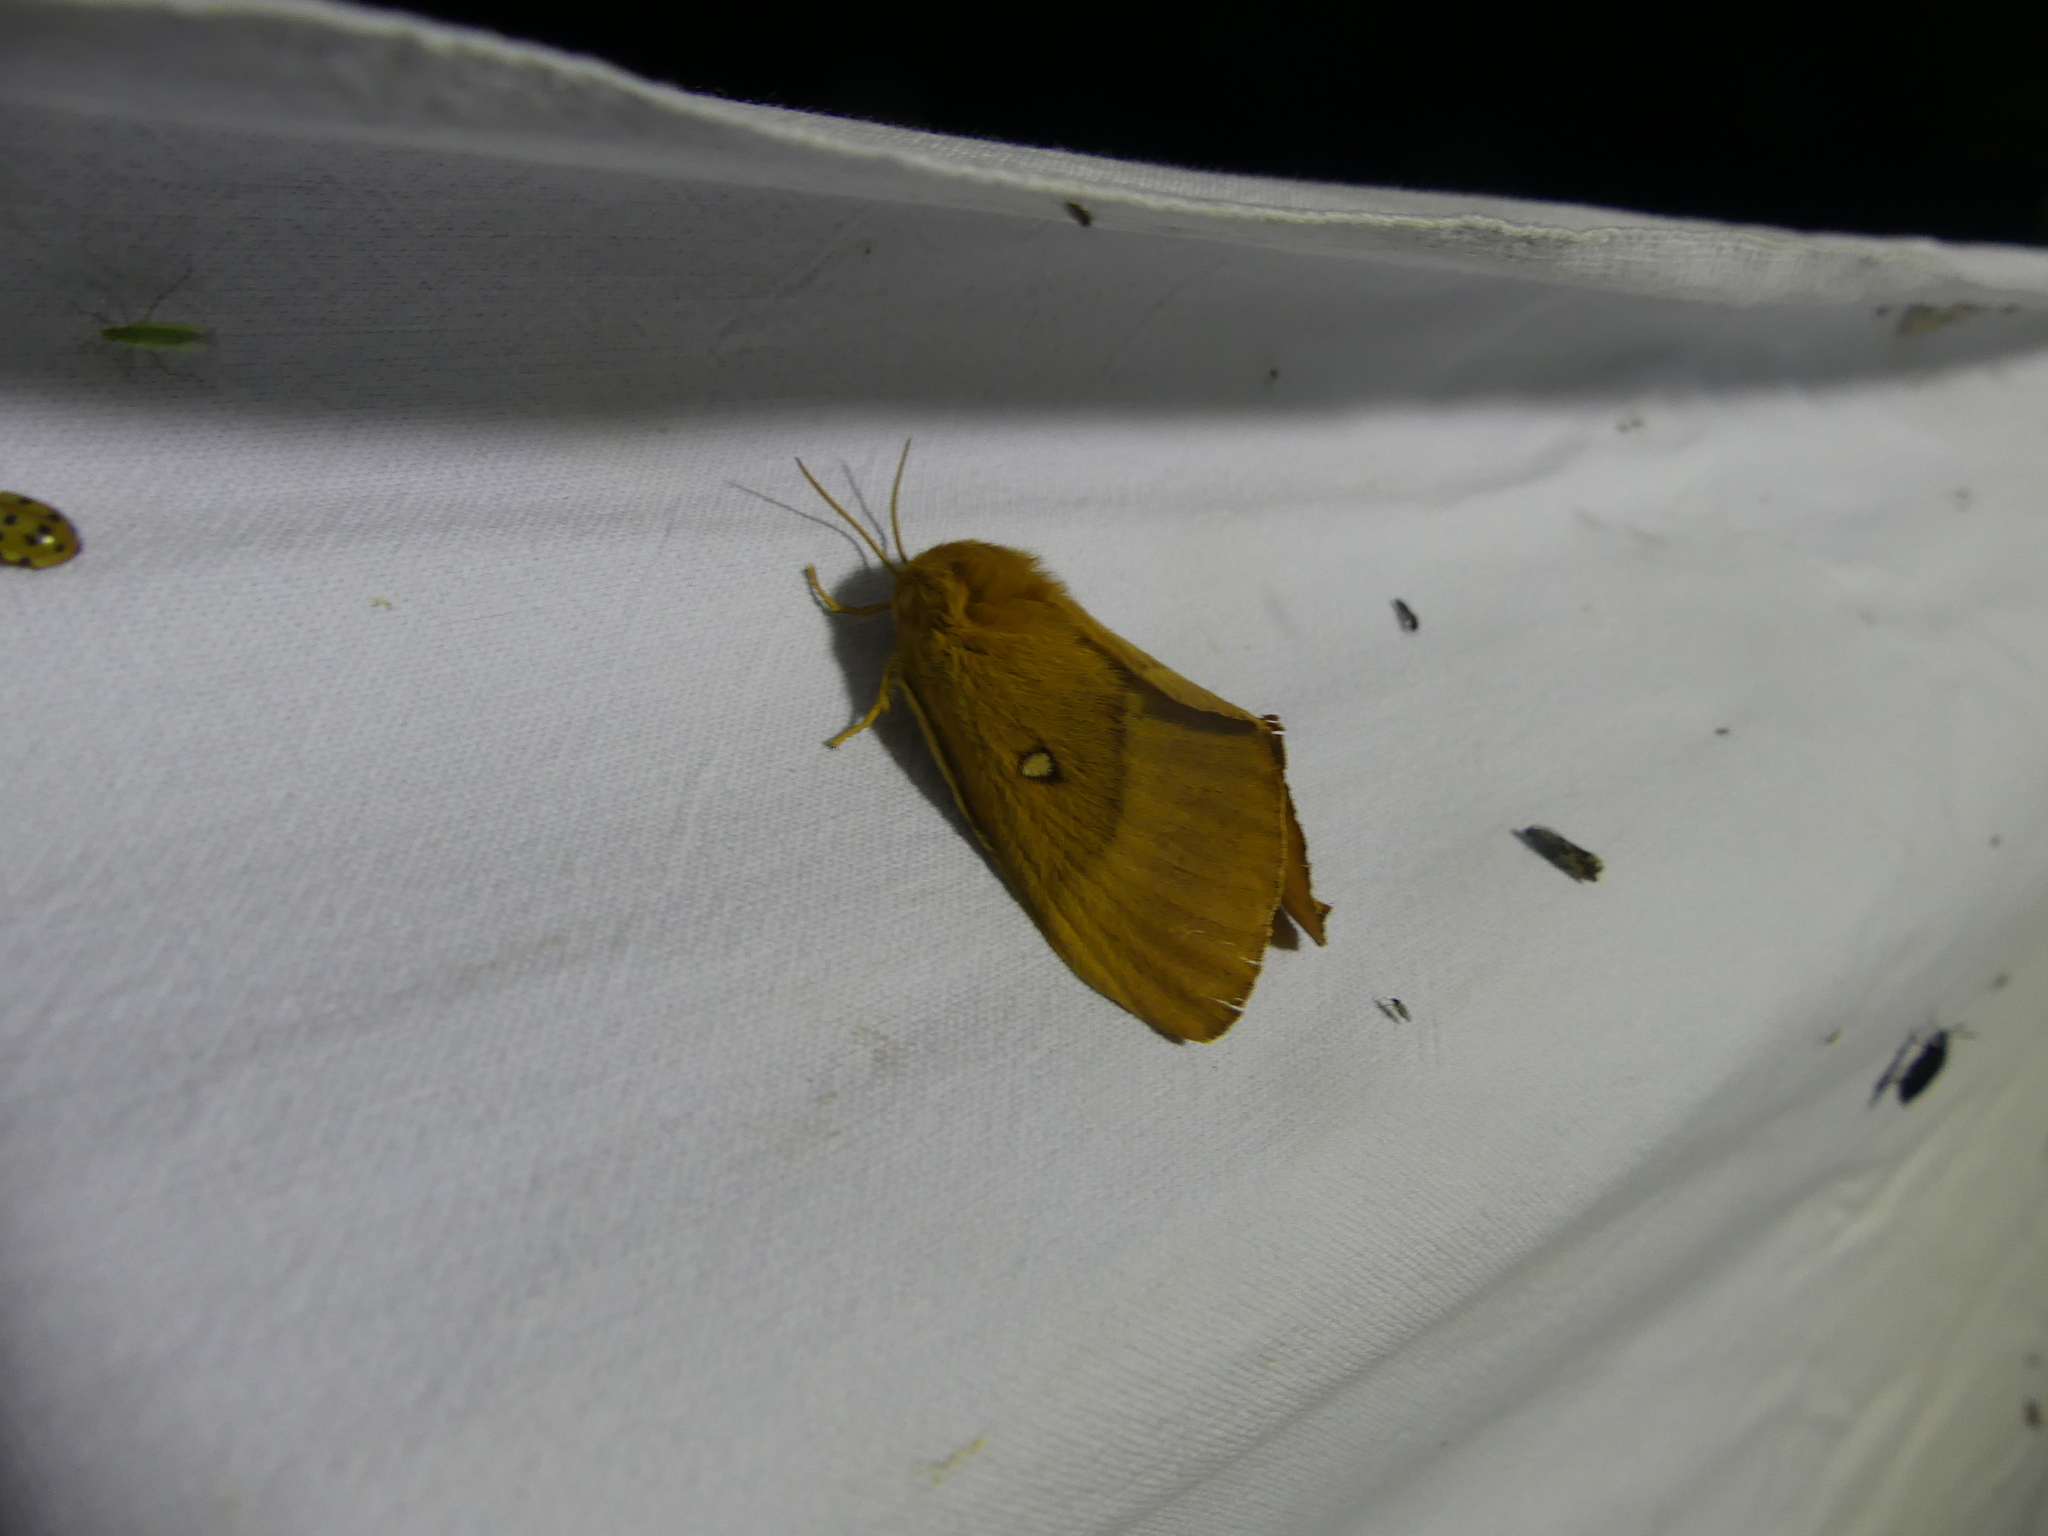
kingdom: Animalia
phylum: Arthropoda
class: Insecta
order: Lepidoptera
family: Lasiocampidae
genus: Lasiocampa
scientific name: Lasiocampa quercus
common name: Oak eggar
